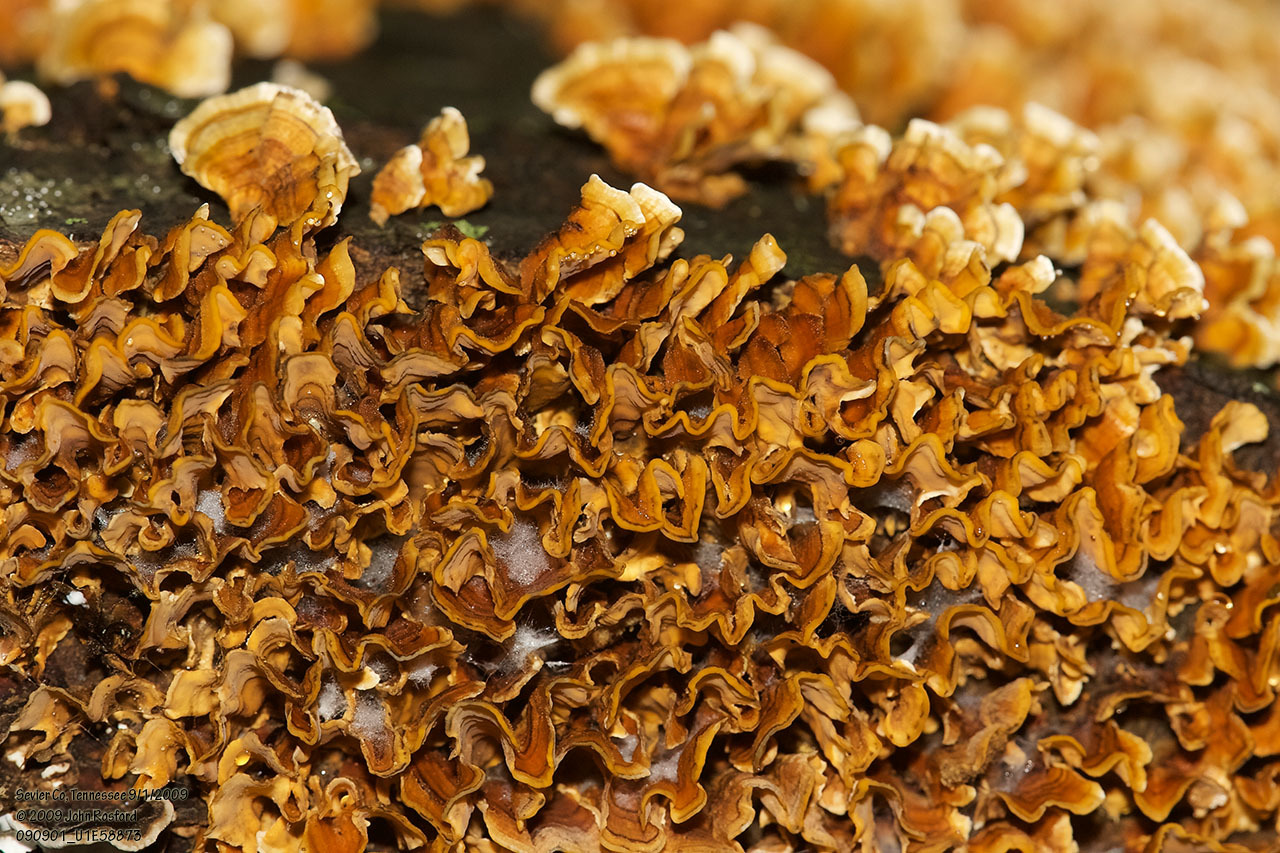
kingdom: Fungi
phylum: Basidiomycota
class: Agaricomycetes
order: Russulales
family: Stereaceae
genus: Stereum
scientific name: Stereum complicatum
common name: Crowded parchment
